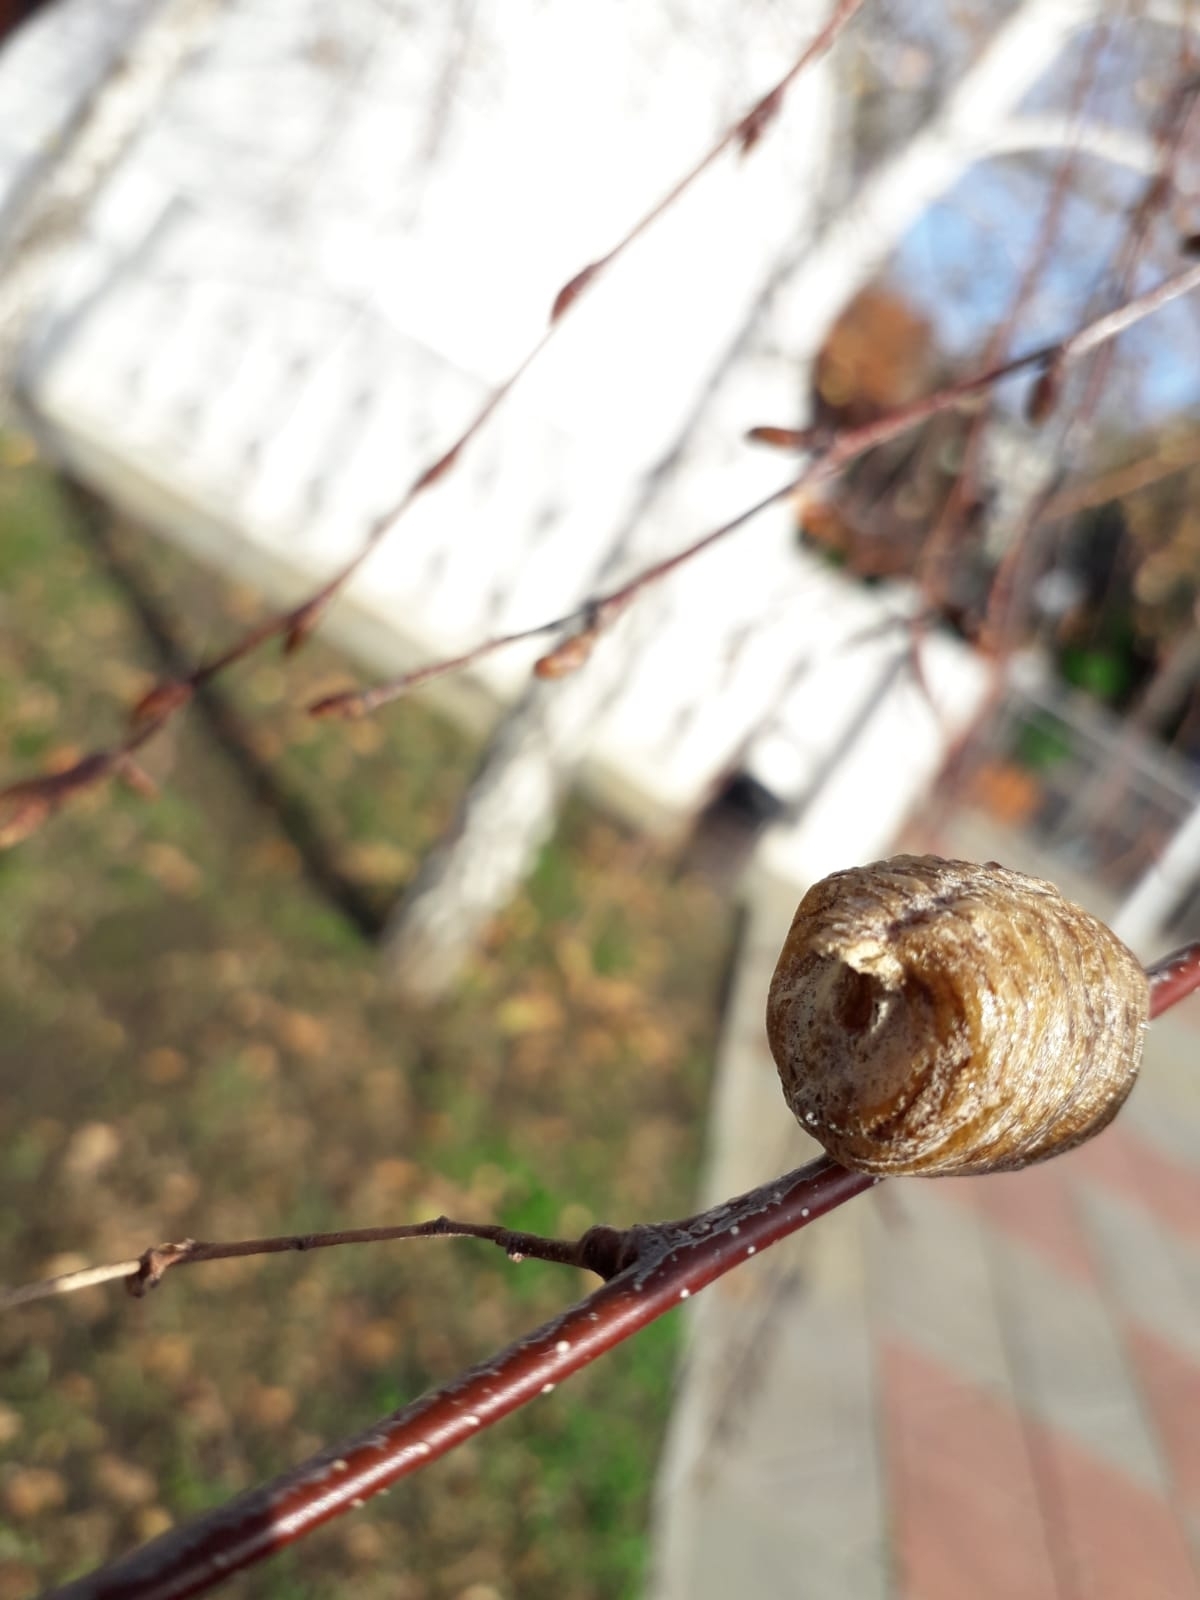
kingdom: Animalia
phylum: Arthropoda
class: Insecta
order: Mantodea
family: Mantidae
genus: Hierodula
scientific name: Hierodula transcaucasica
